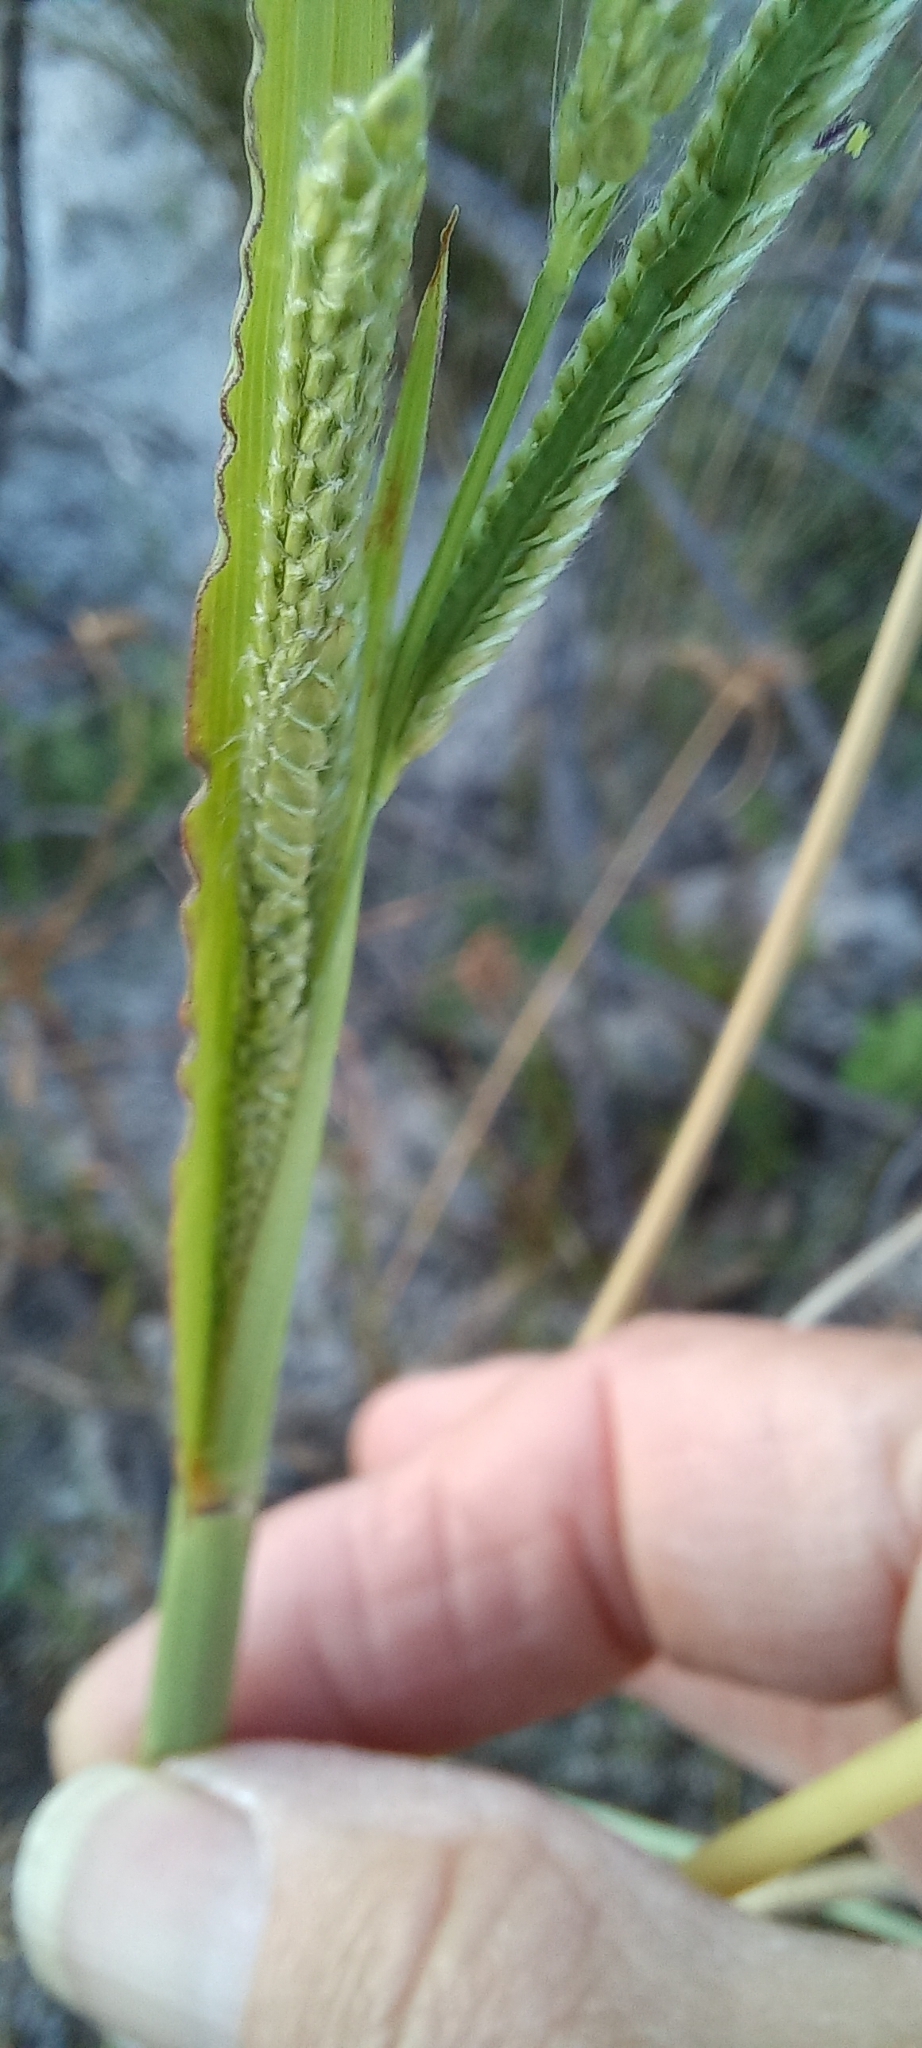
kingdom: Plantae
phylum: Tracheophyta
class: Liliopsida
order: Poales
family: Poaceae
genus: Paspalum
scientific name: Paspalum urvillei
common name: Vasey's grass
